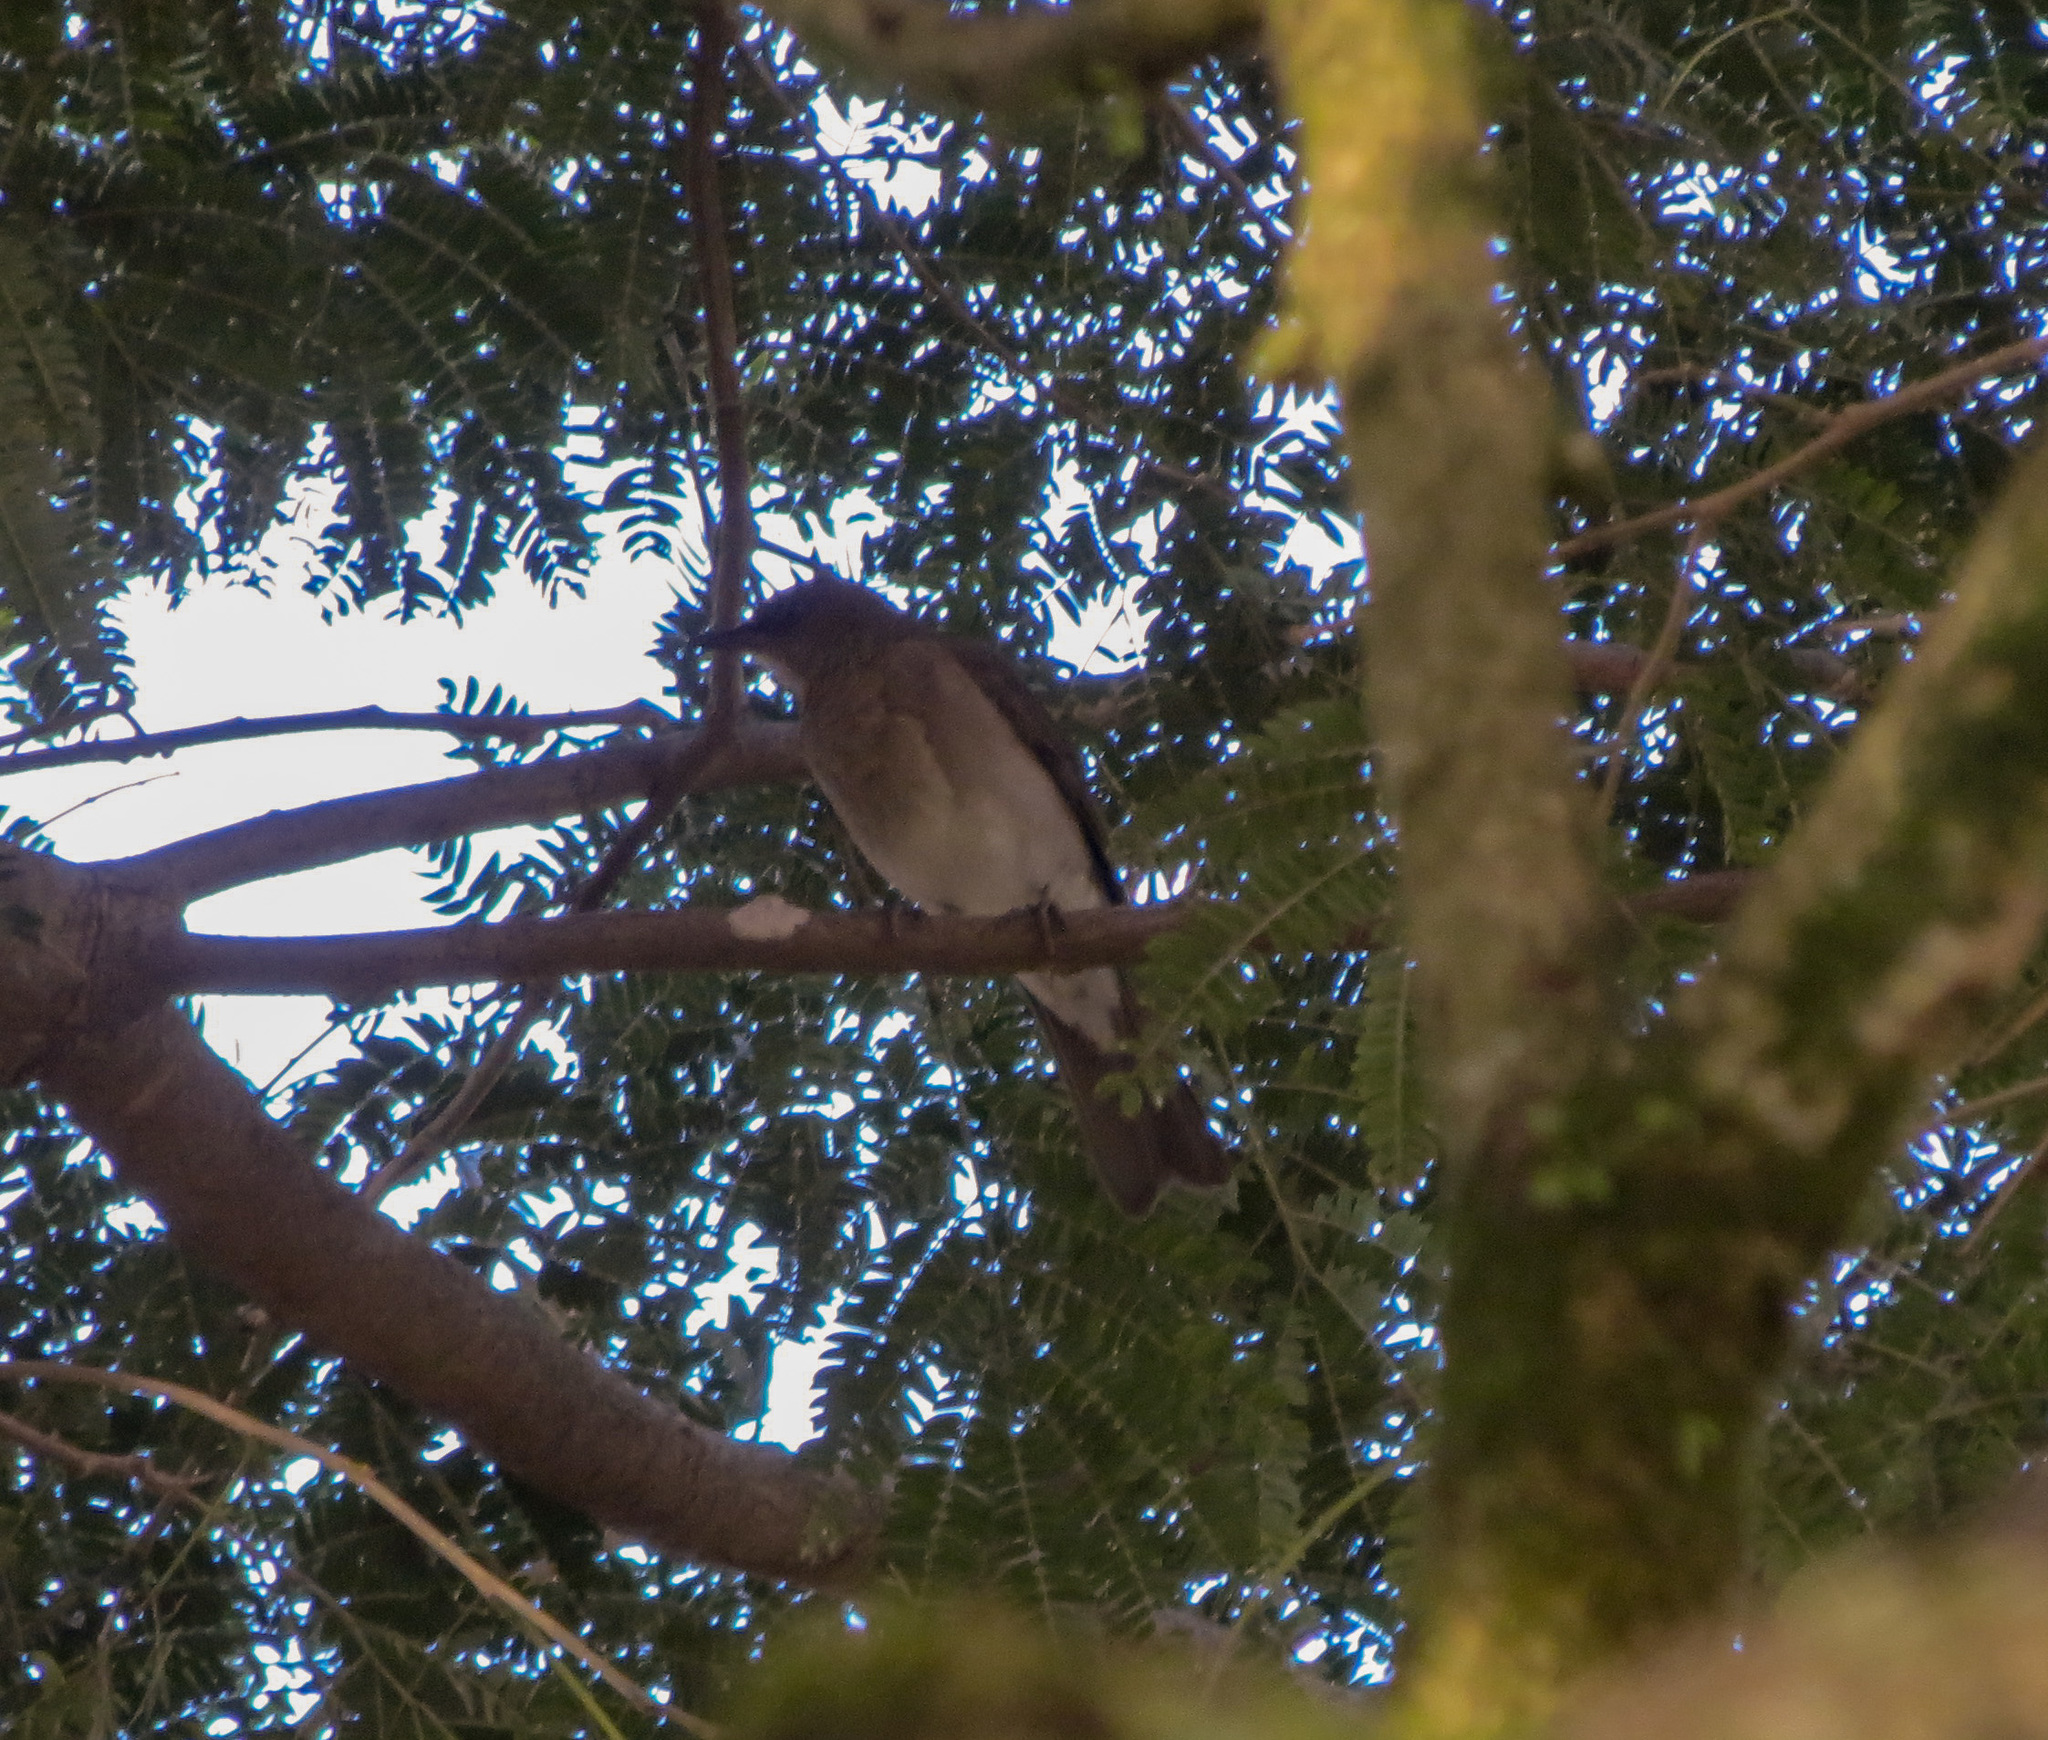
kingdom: Animalia
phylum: Chordata
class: Aves
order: Passeriformes
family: Turdidae
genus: Turdus
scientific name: Turdus ignobilis
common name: Black-billed thrush
